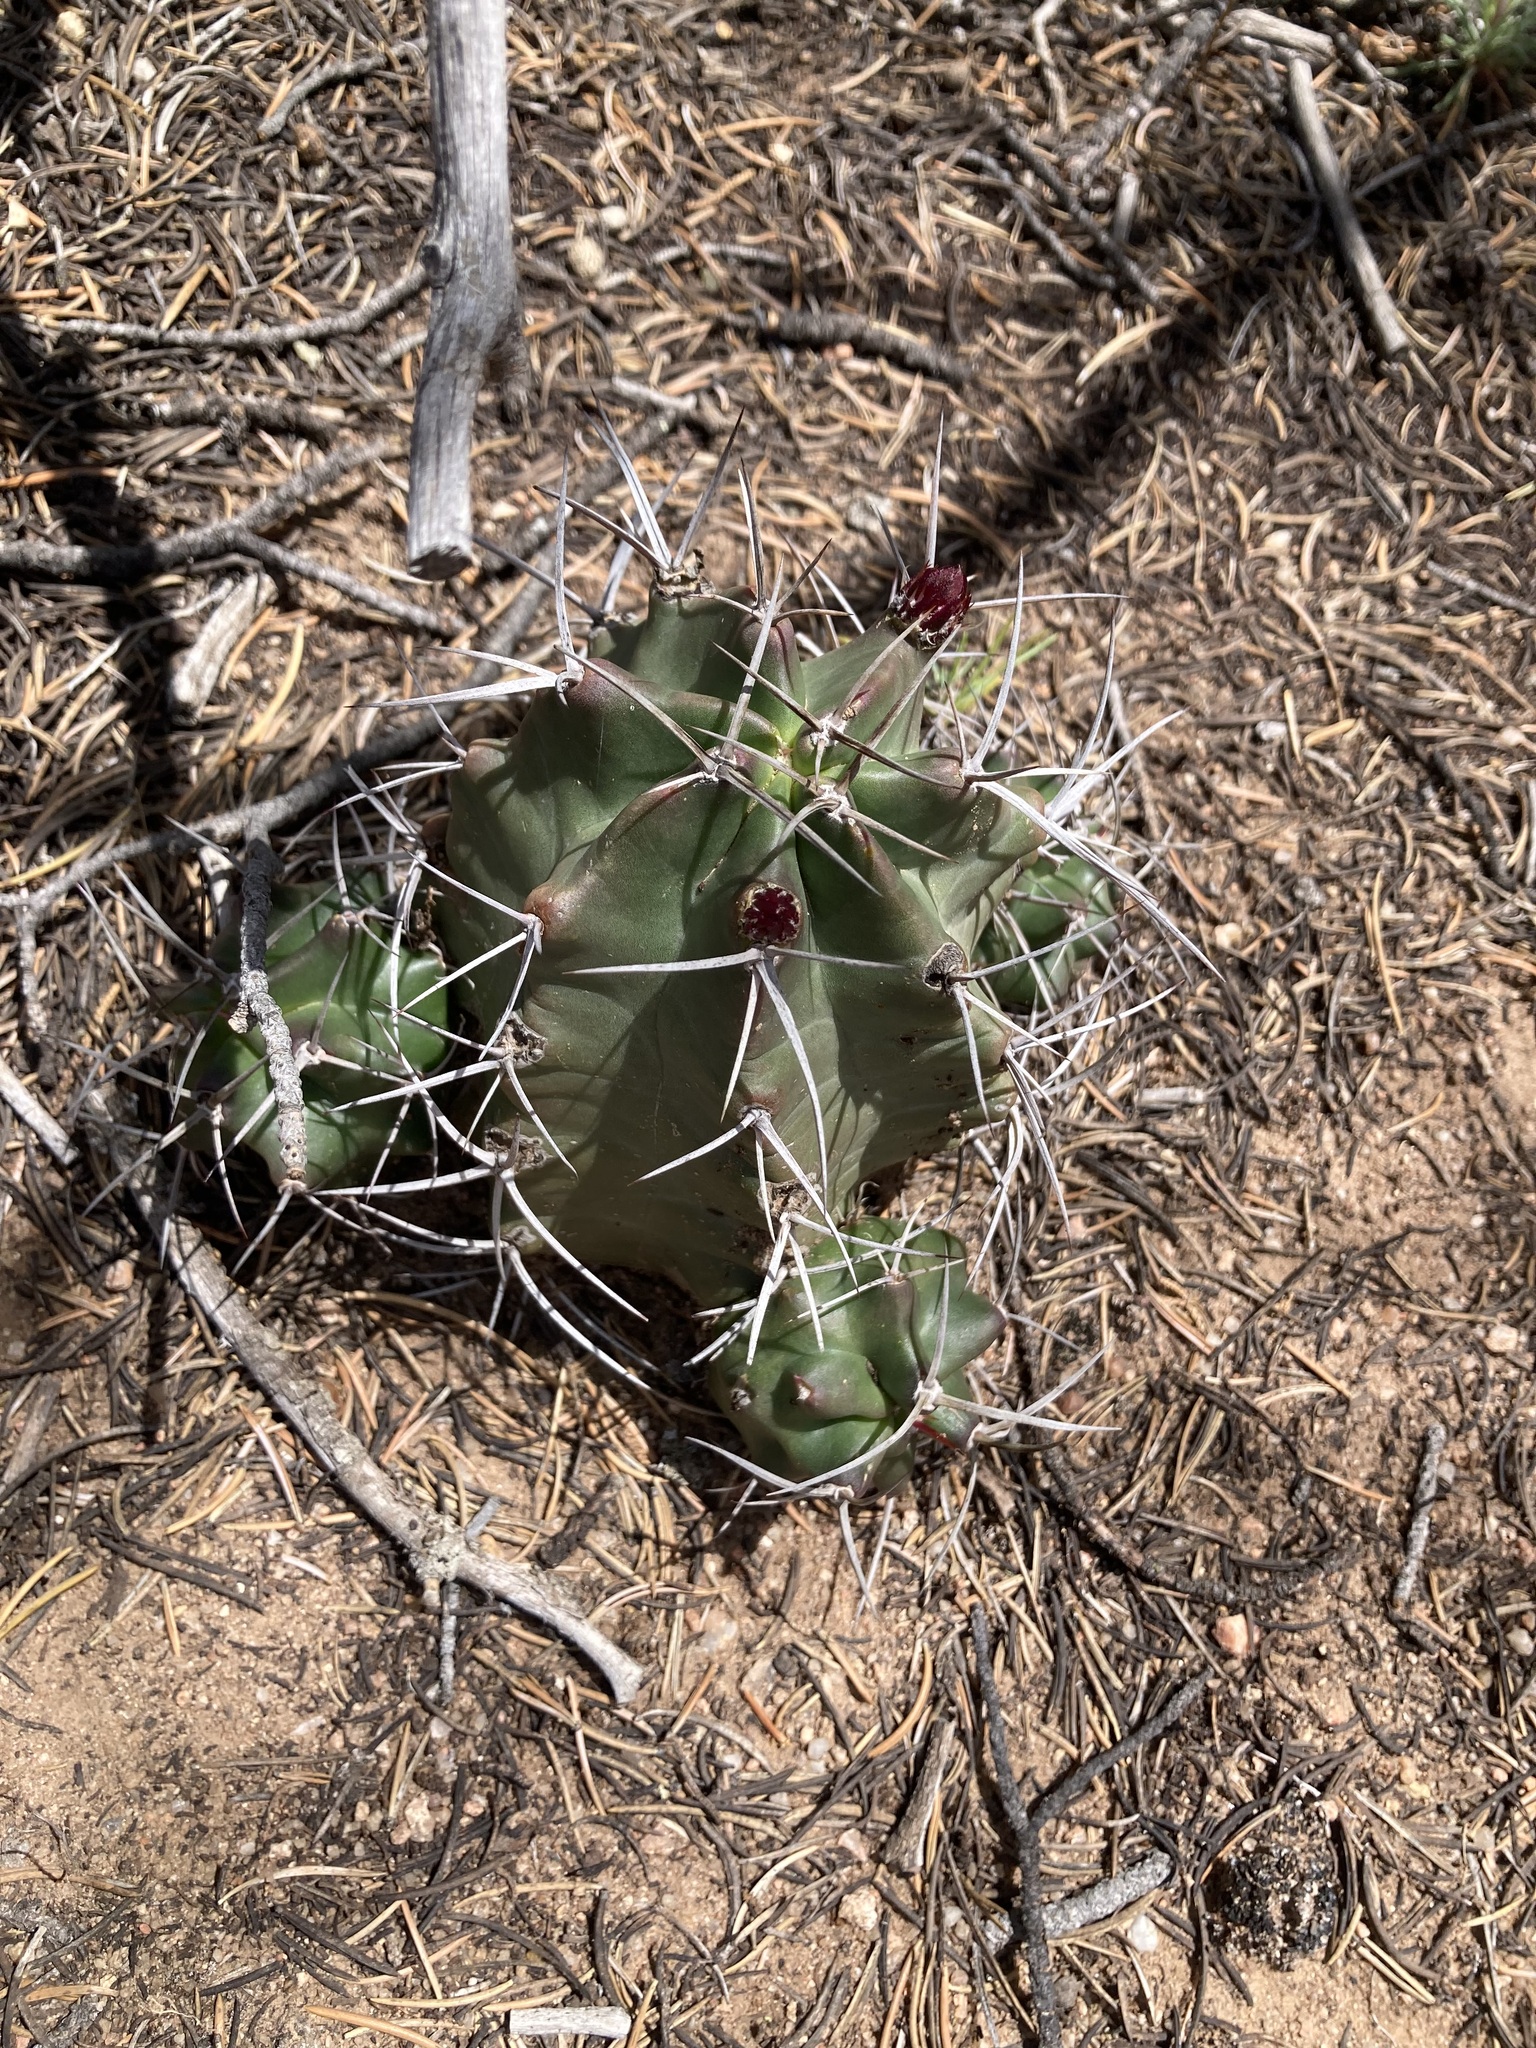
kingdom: Plantae
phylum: Tracheophyta
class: Magnoliopsida
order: Caryophyllales
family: Cactaceae
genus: Echinocereus
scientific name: Echinocereus triglochidiatus
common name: Claretcup hedgehog
